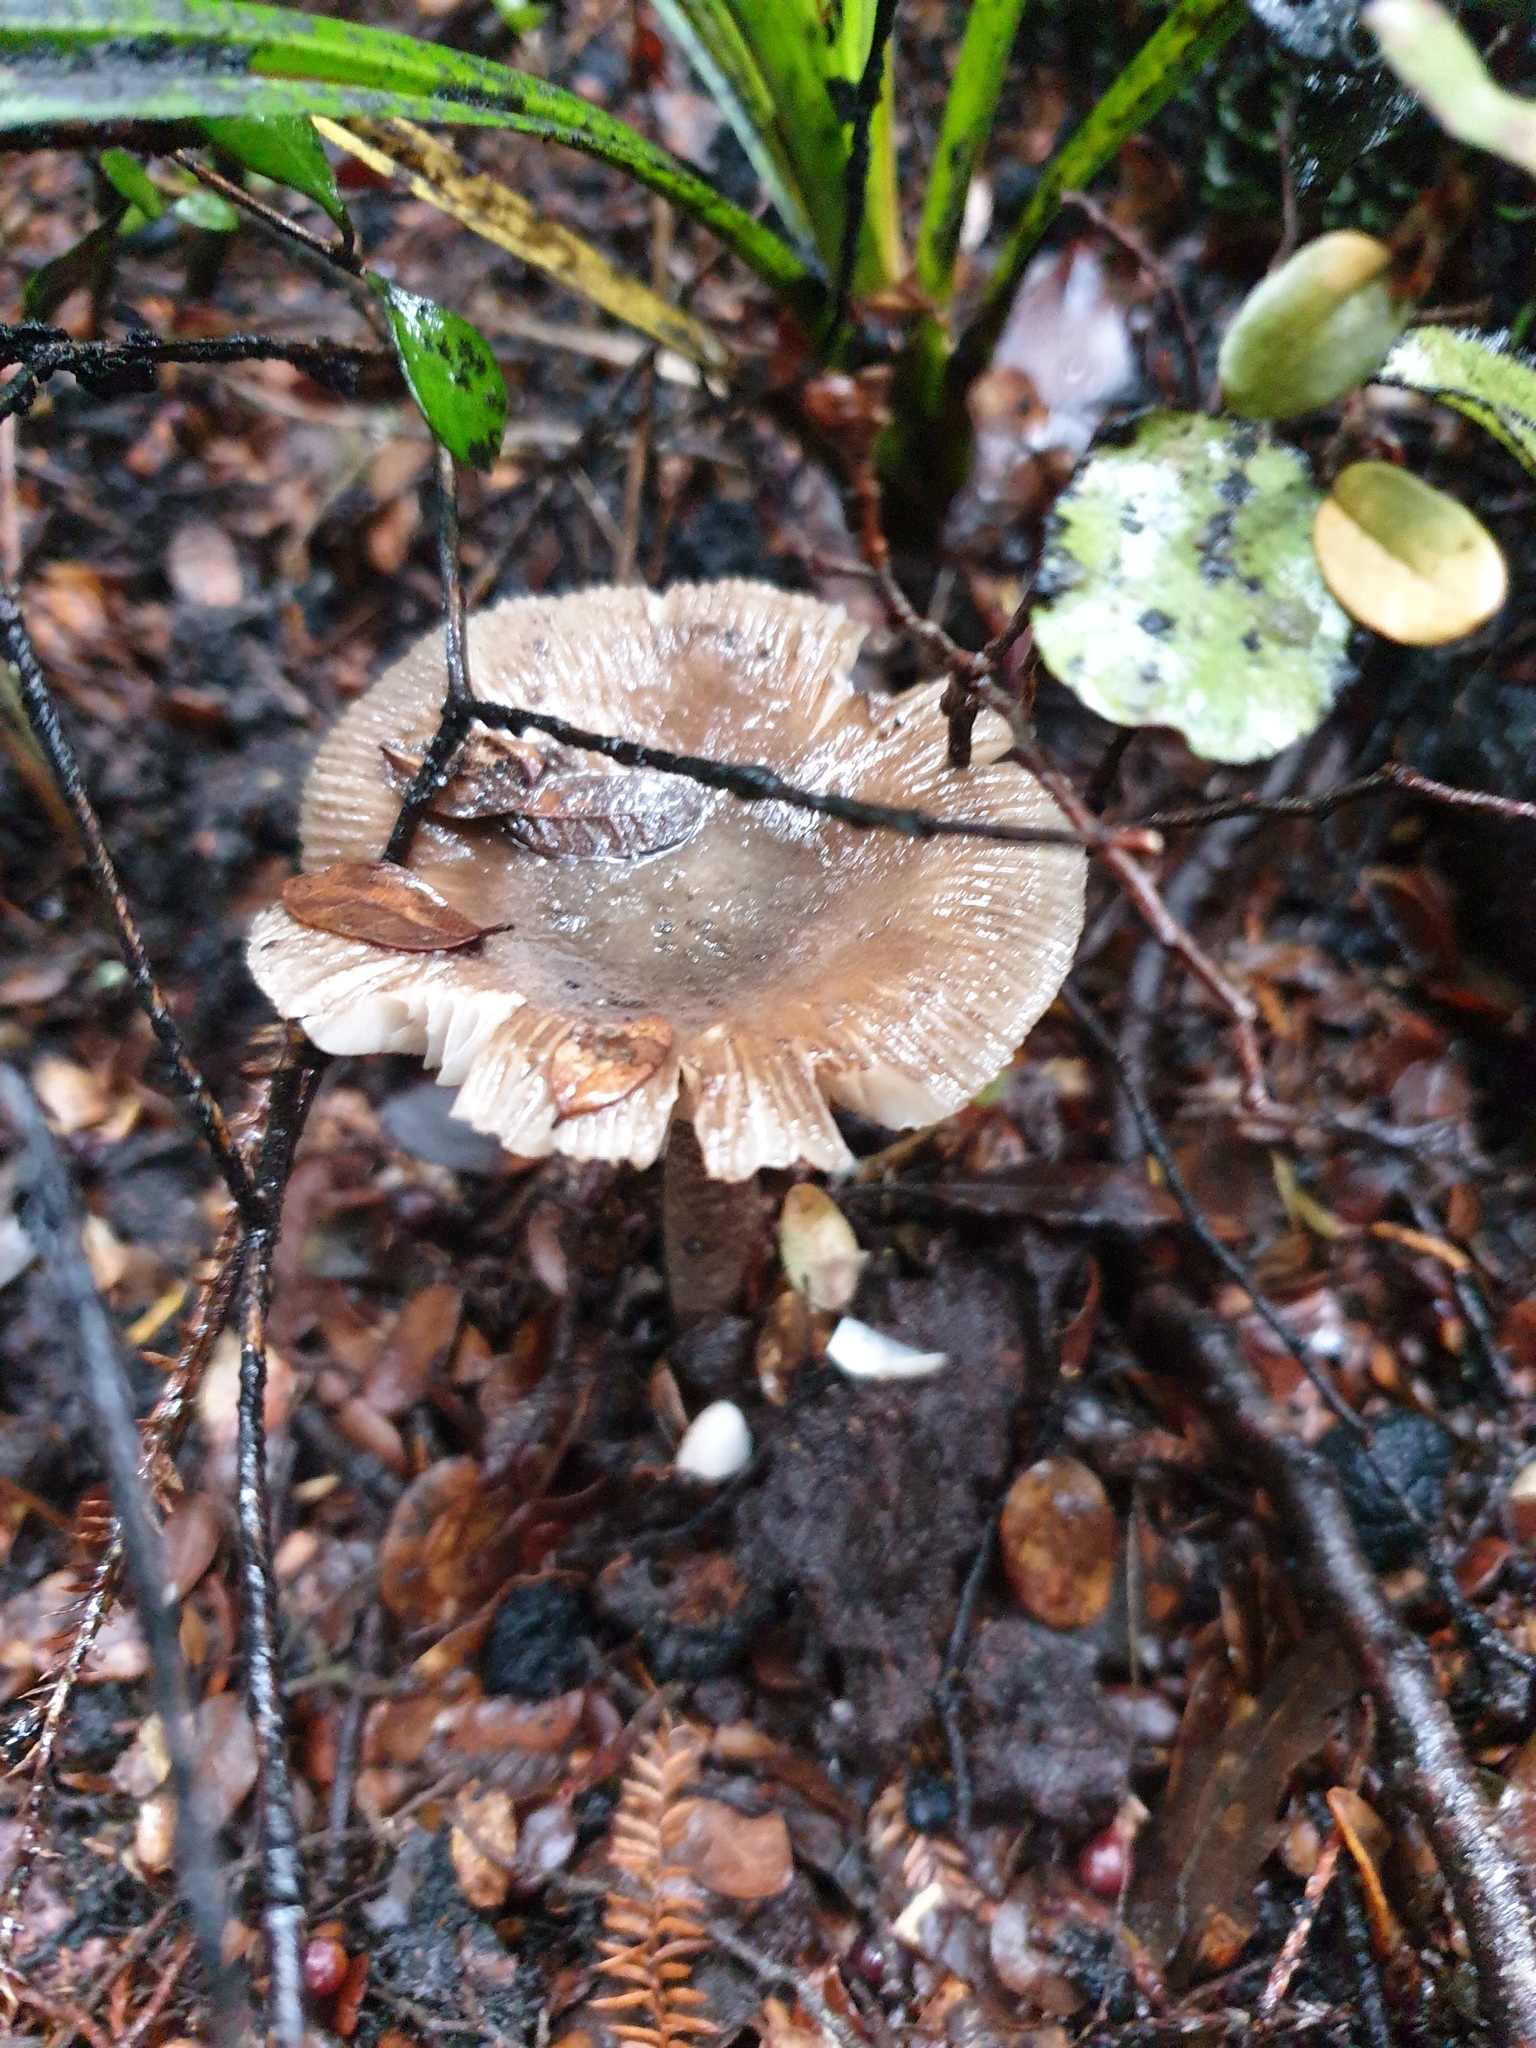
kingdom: Fungi
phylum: Basidiomycota
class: Agaricomycetes
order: Agaricales
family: Amanitaceae
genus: Amanita
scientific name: Amanita pekeoides
